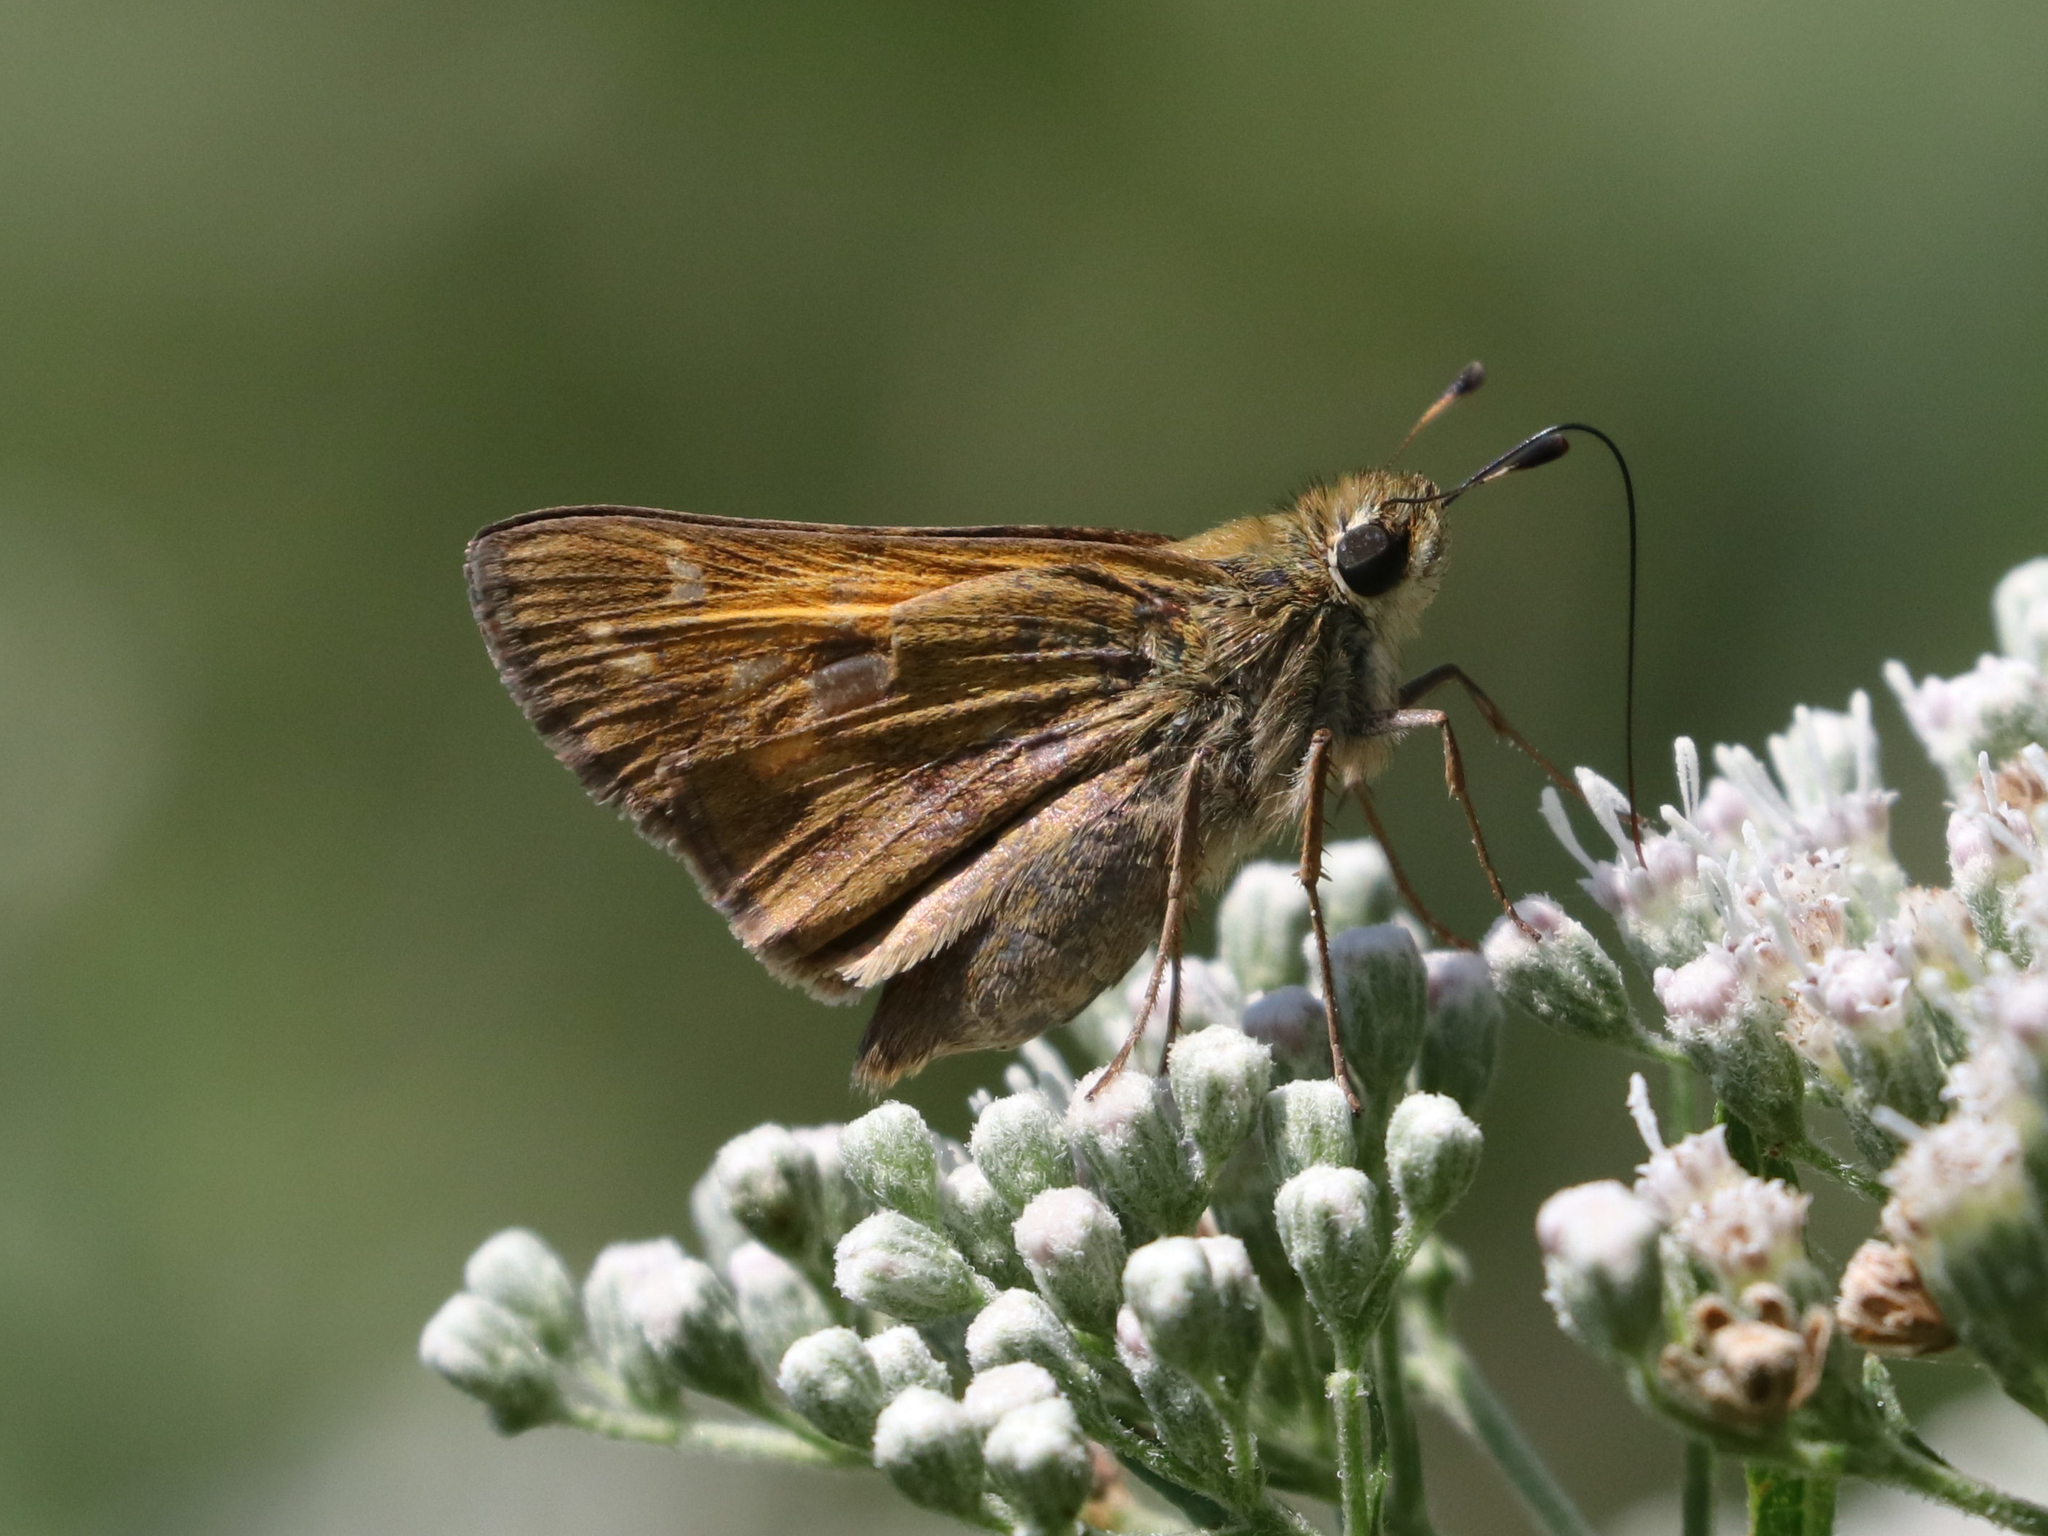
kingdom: Animalia
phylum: Arthropoda
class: Insecta
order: Lepidoptera
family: Hesperiidae
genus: Atalopedes
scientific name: Atalopedes
